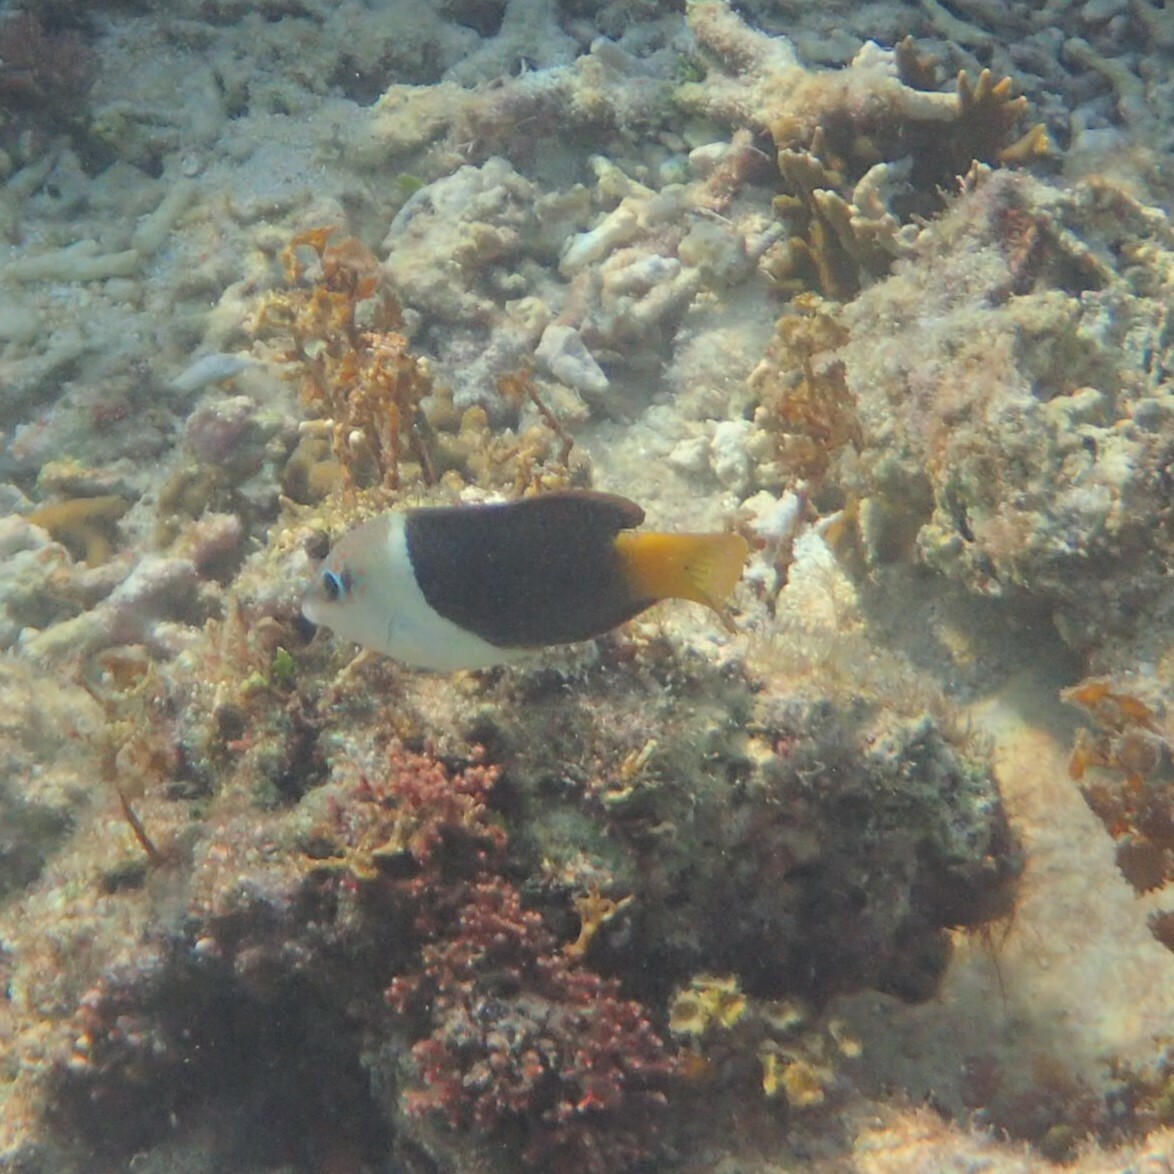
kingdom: Animalia
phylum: Chordata
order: Perciformes
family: Labridae
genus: Hemigymnus
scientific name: Hemigymnus melapterus
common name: Blackeye thicklip
